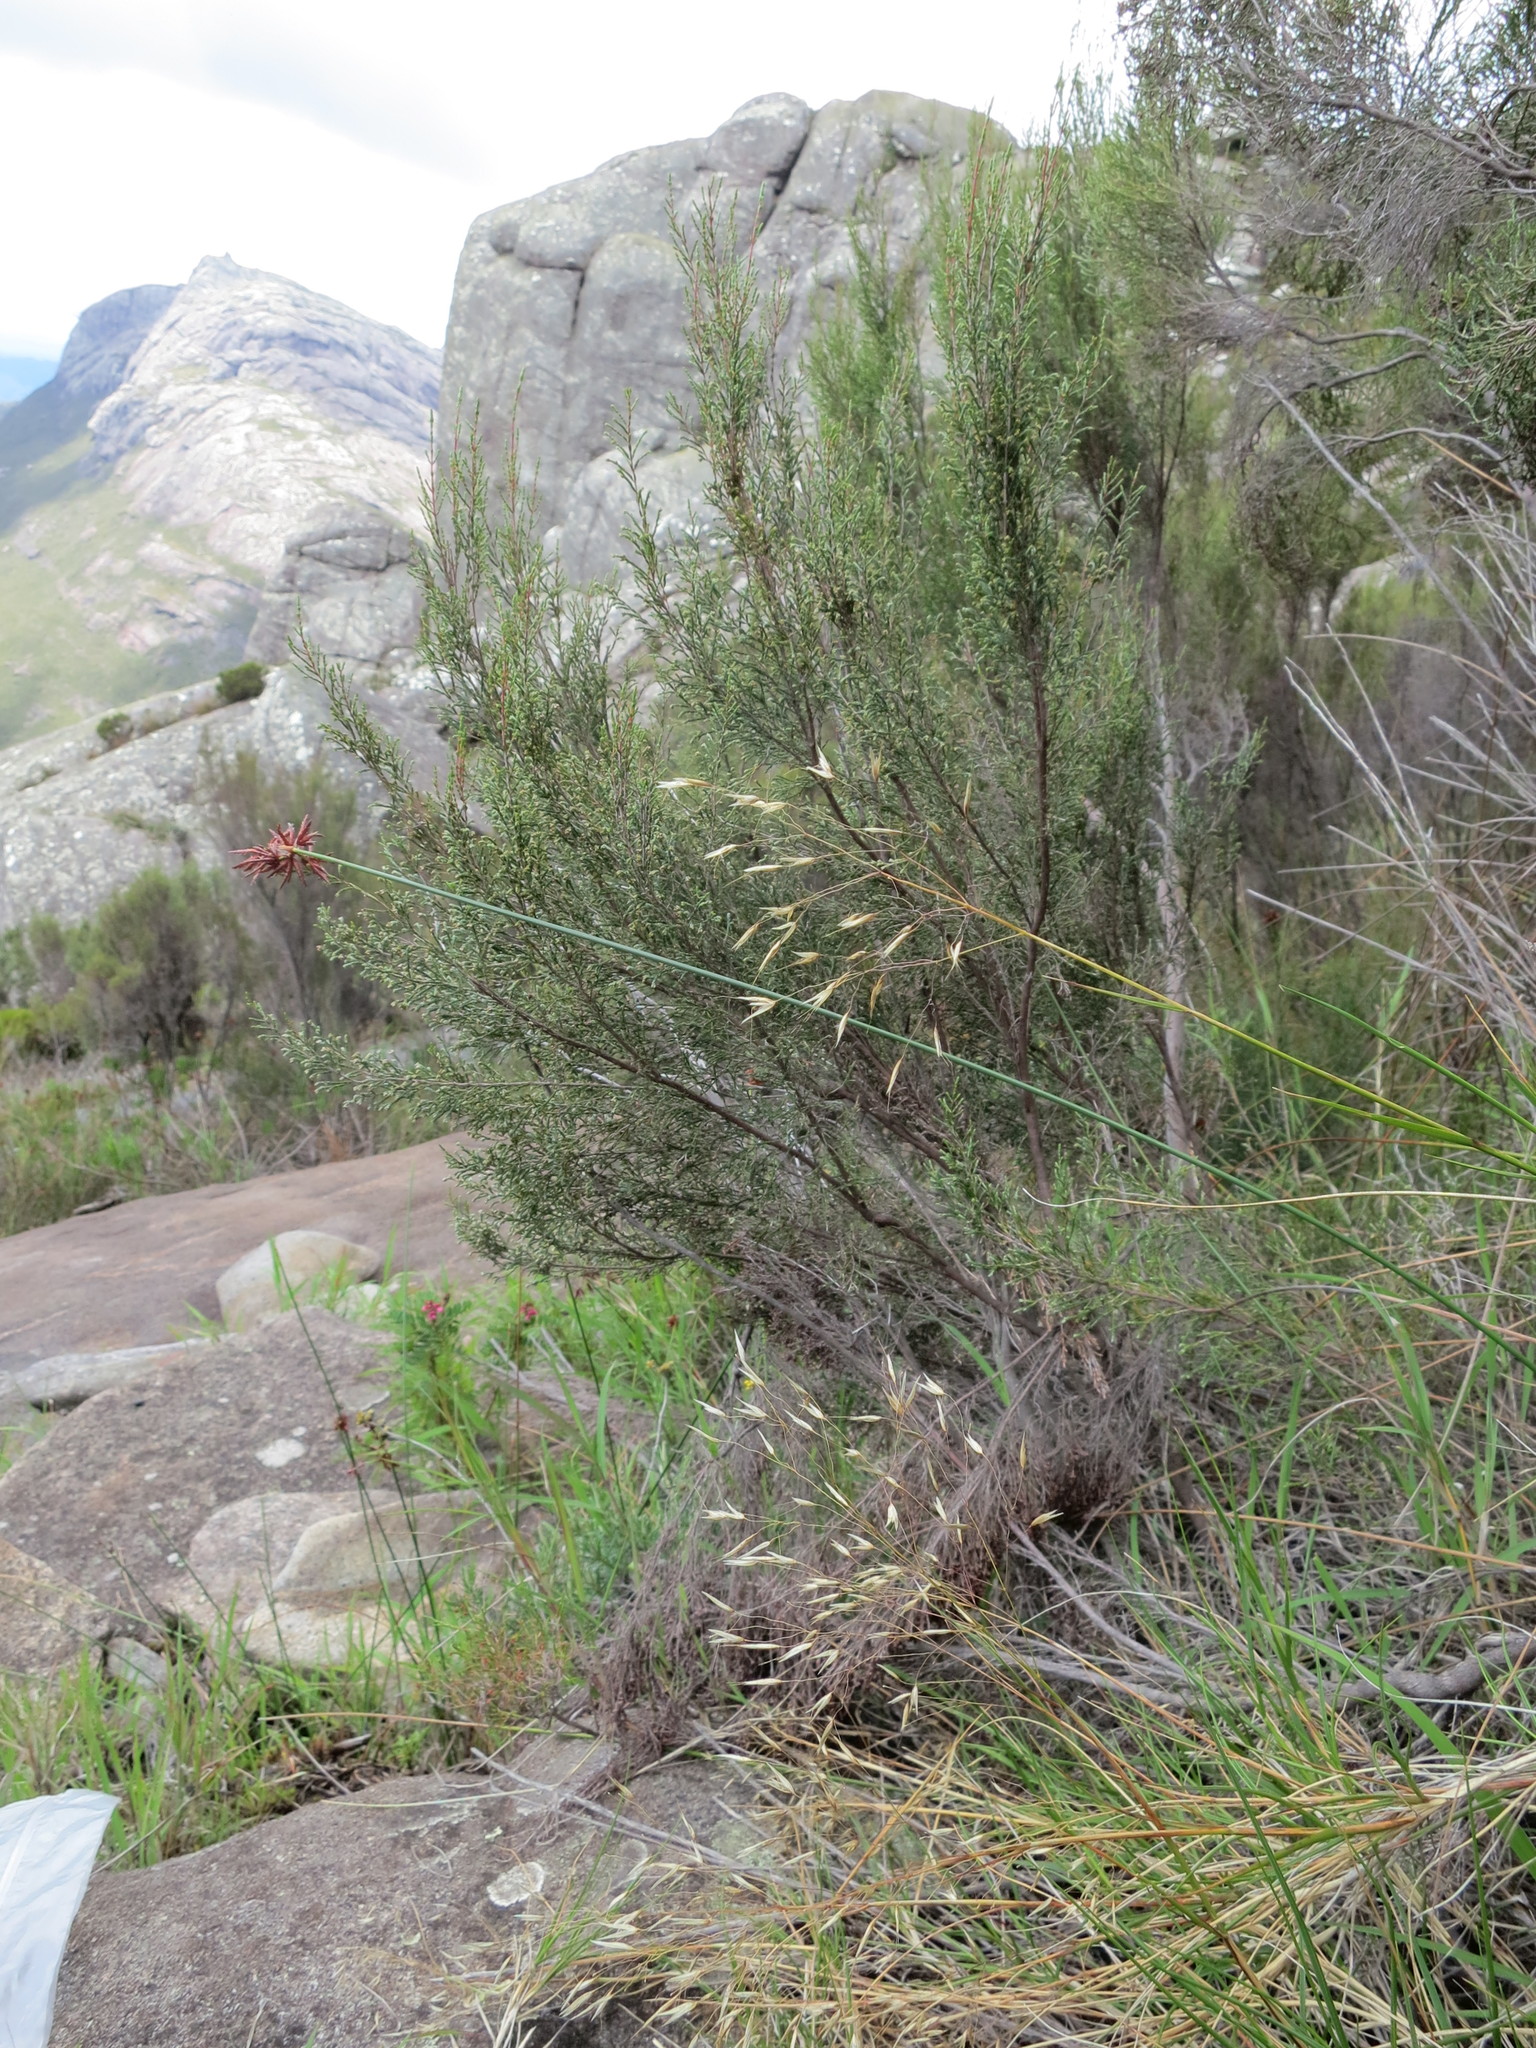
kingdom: Plantae
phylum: Tracheophyta
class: Liliopsida
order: Poales
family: Poaceae
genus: Pentameris
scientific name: Pentameris andringitrensis
